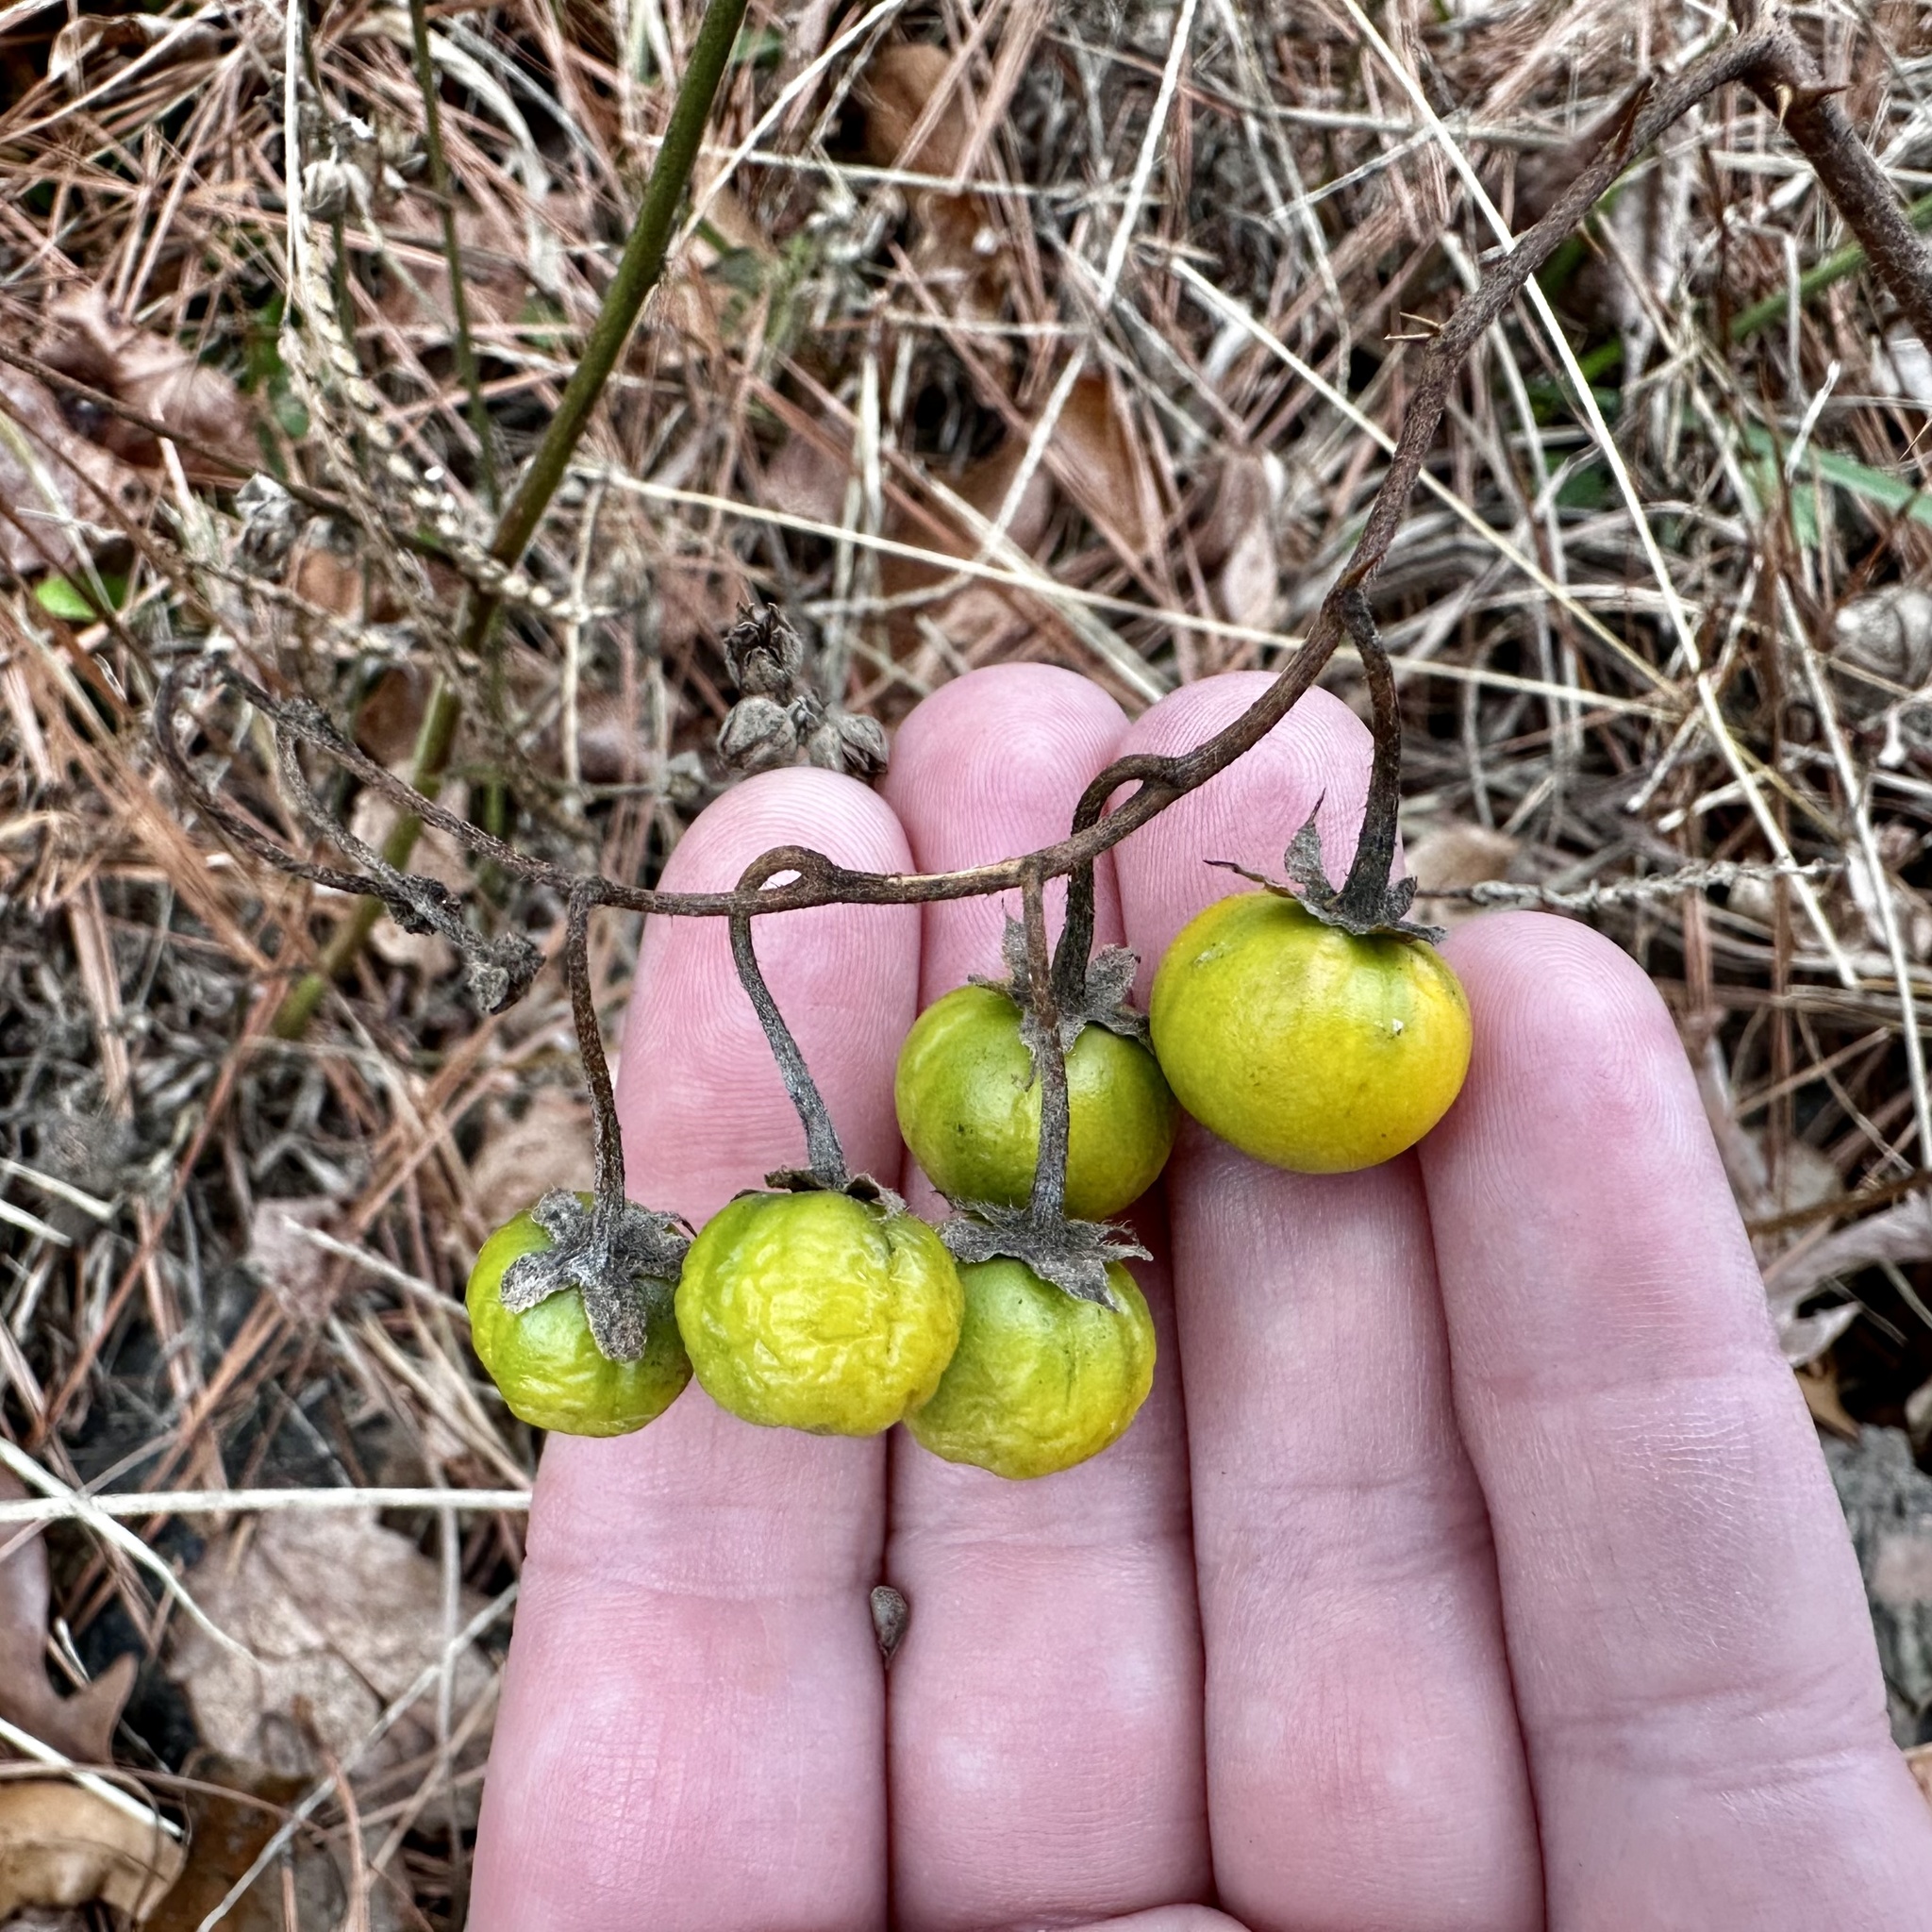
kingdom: Plantae
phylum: Tracheophyta
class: Magnoliopsida
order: Solanales
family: Solanaceae
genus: Solanum
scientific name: Solanum carolinense
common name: Horse-nettle
